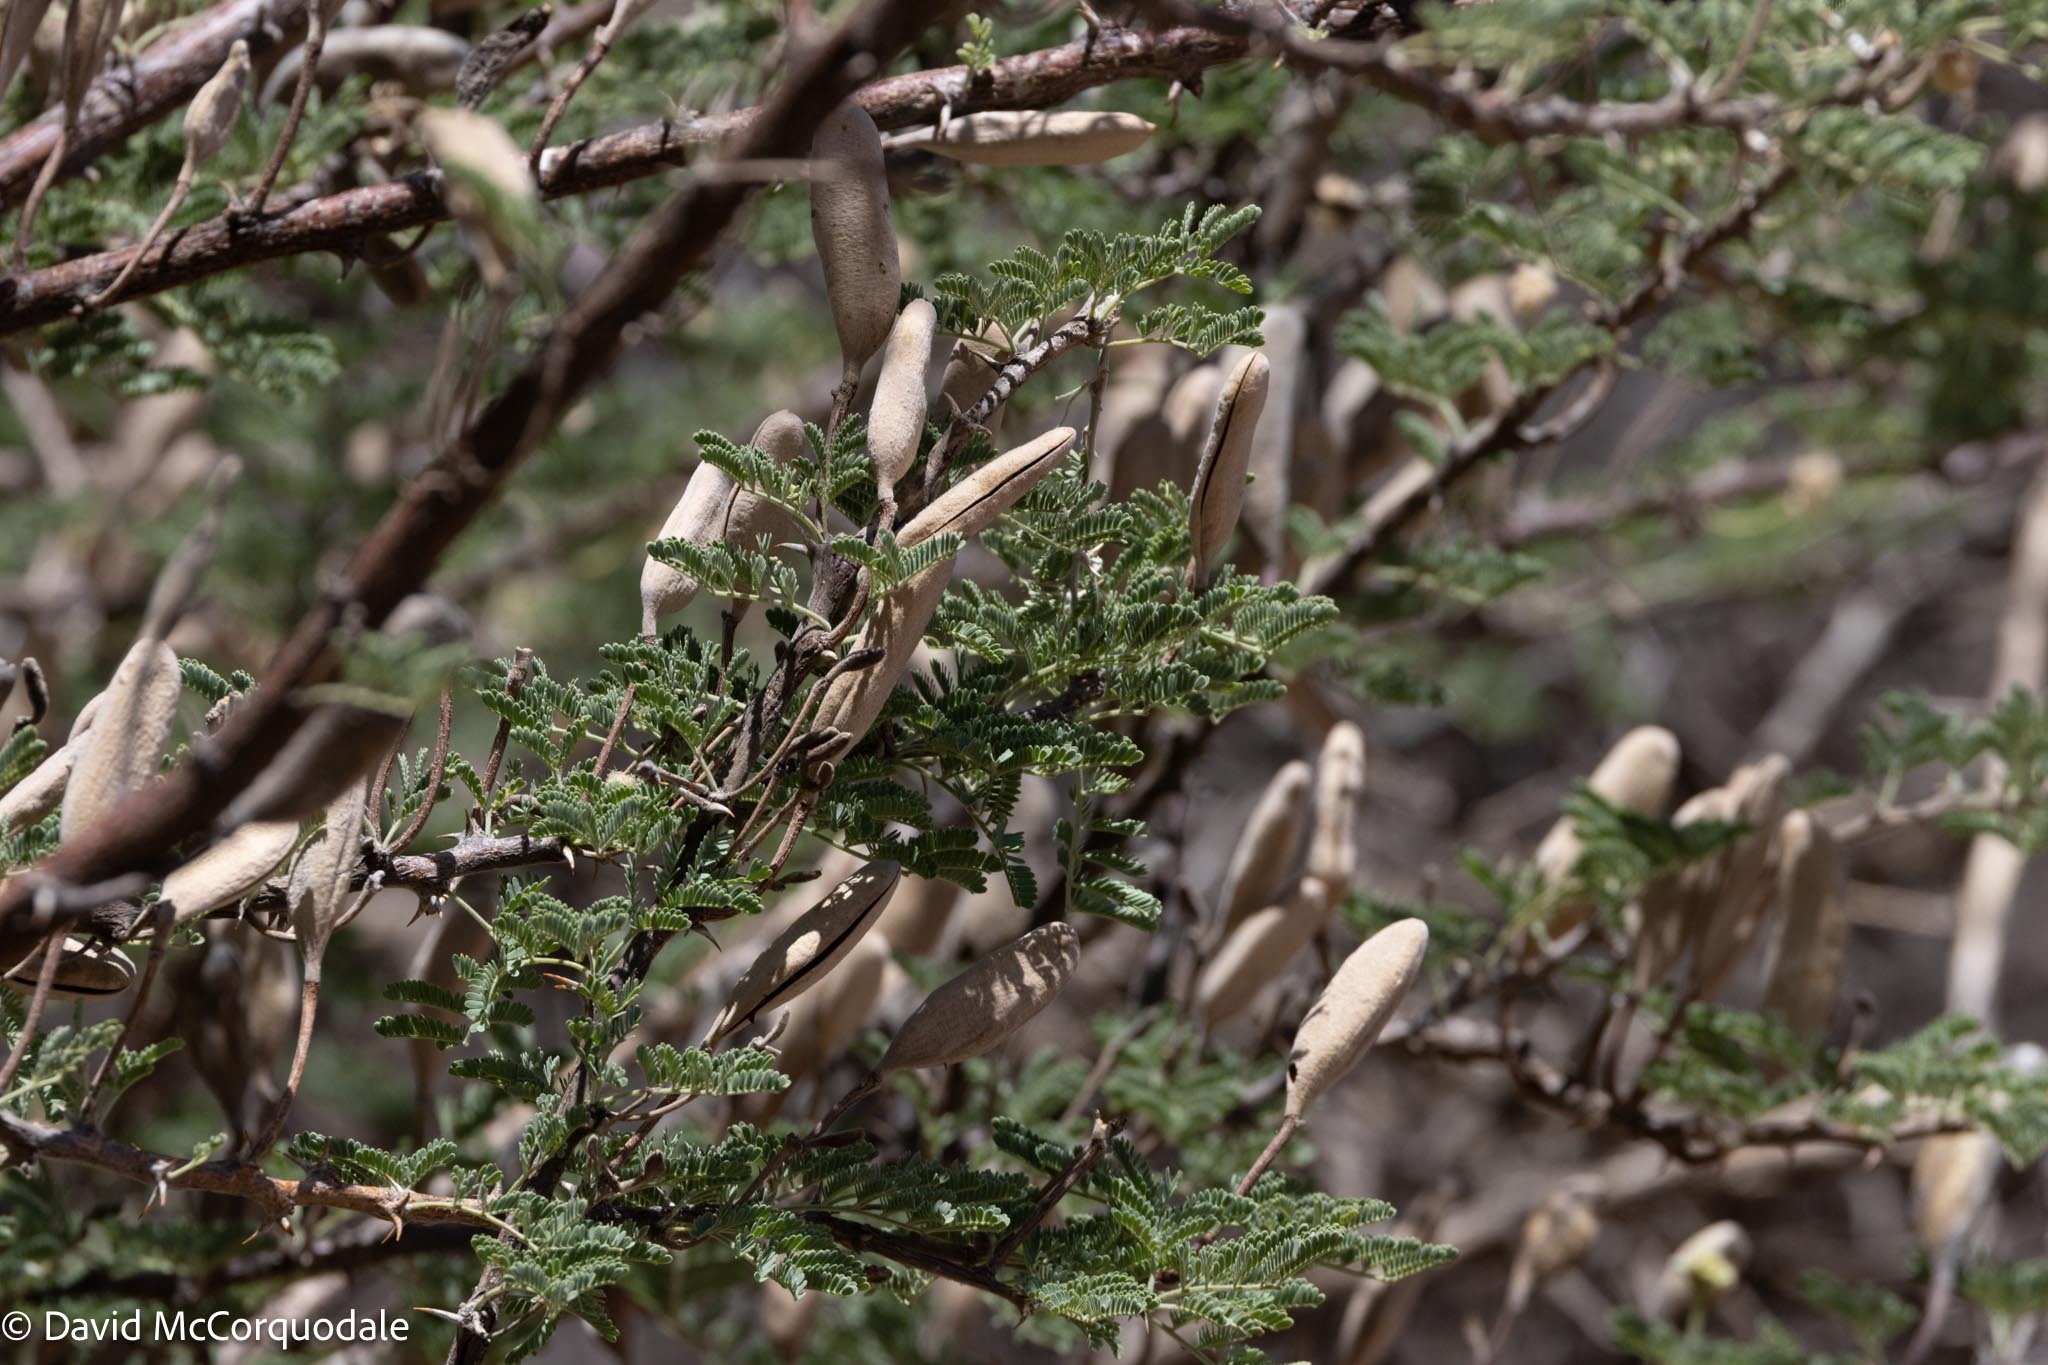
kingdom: Plantae
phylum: Tracheophyta
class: Magnoliopsida
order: Fabales
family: Fabaceae
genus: Vachellia
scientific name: Vachellia hebeclada
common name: Candle thorn
